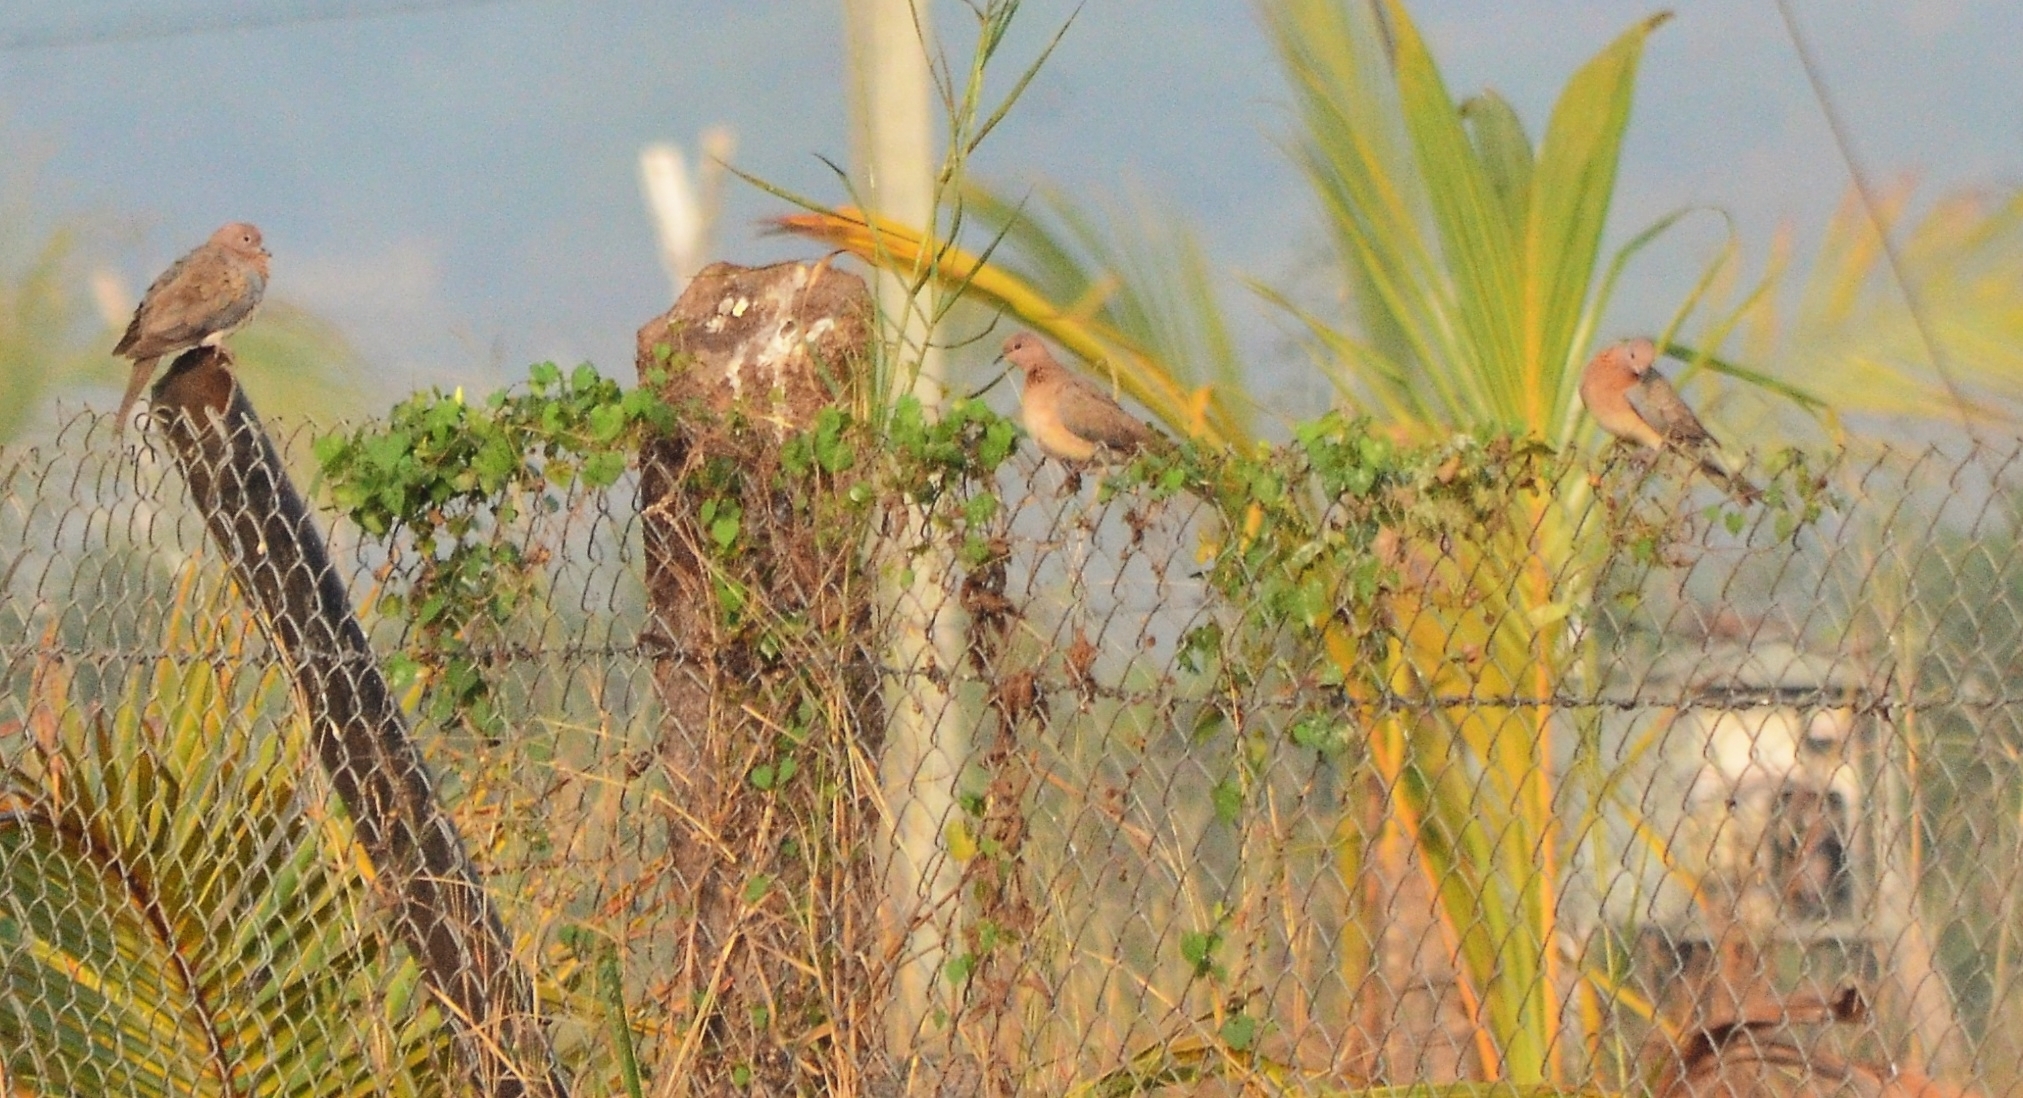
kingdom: Animalia
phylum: Chordata
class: Aves
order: Columbiformes
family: Columbidae
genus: Spilopelia
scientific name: Spilopelia senegalensis
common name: Laughing dove
